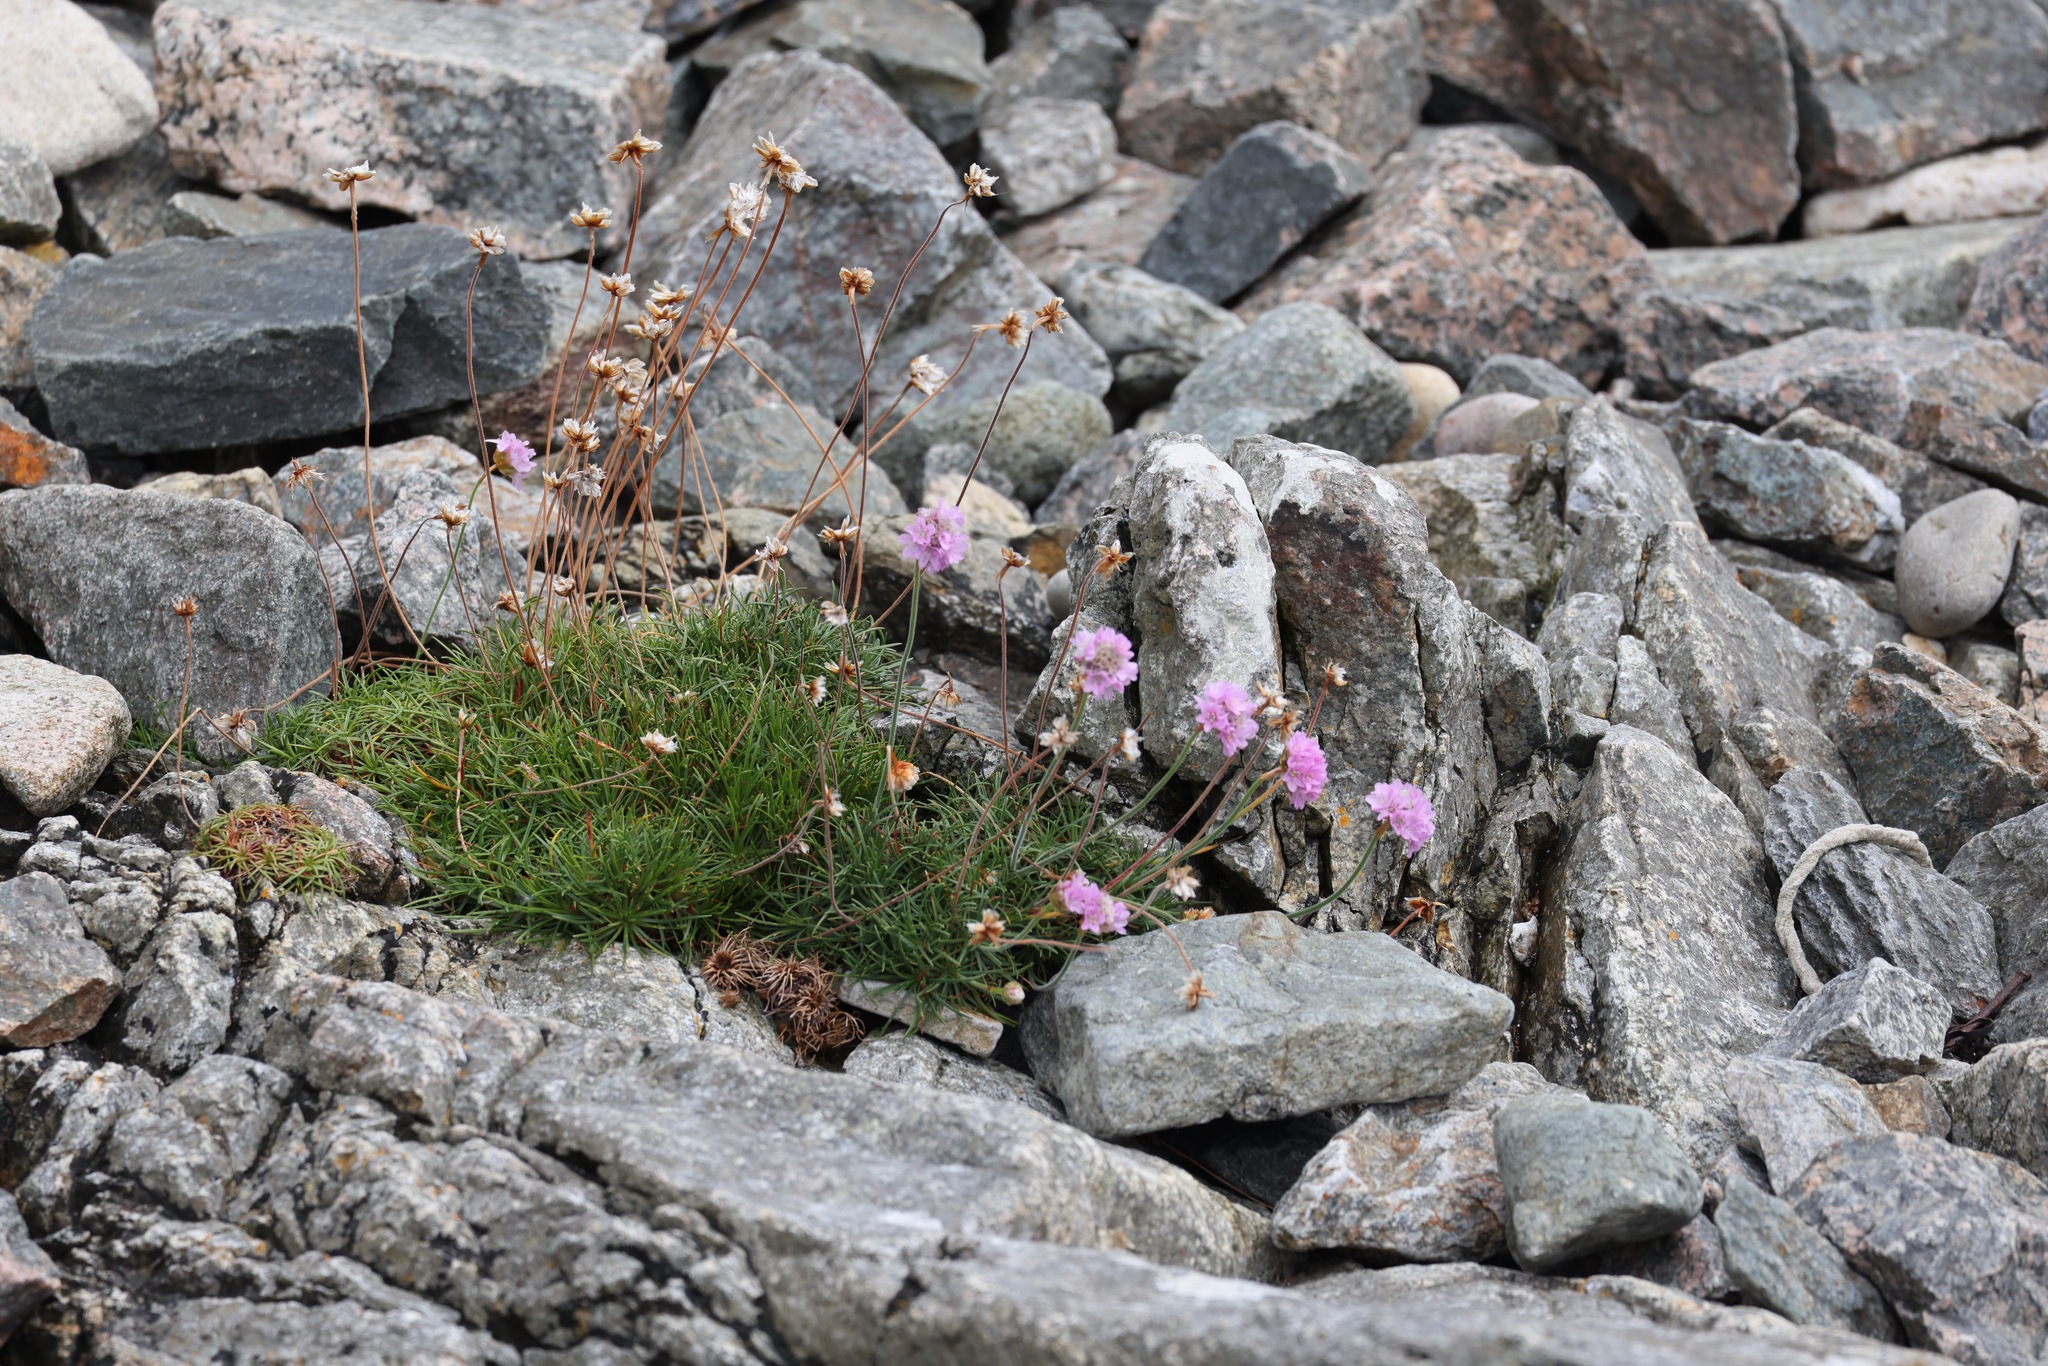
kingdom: Plantae
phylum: Tracheophyta
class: Magnoliopsida
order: Caryophyllales
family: Plumbaginaceae
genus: Armeria
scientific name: Armeria maritima
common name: Thrift
